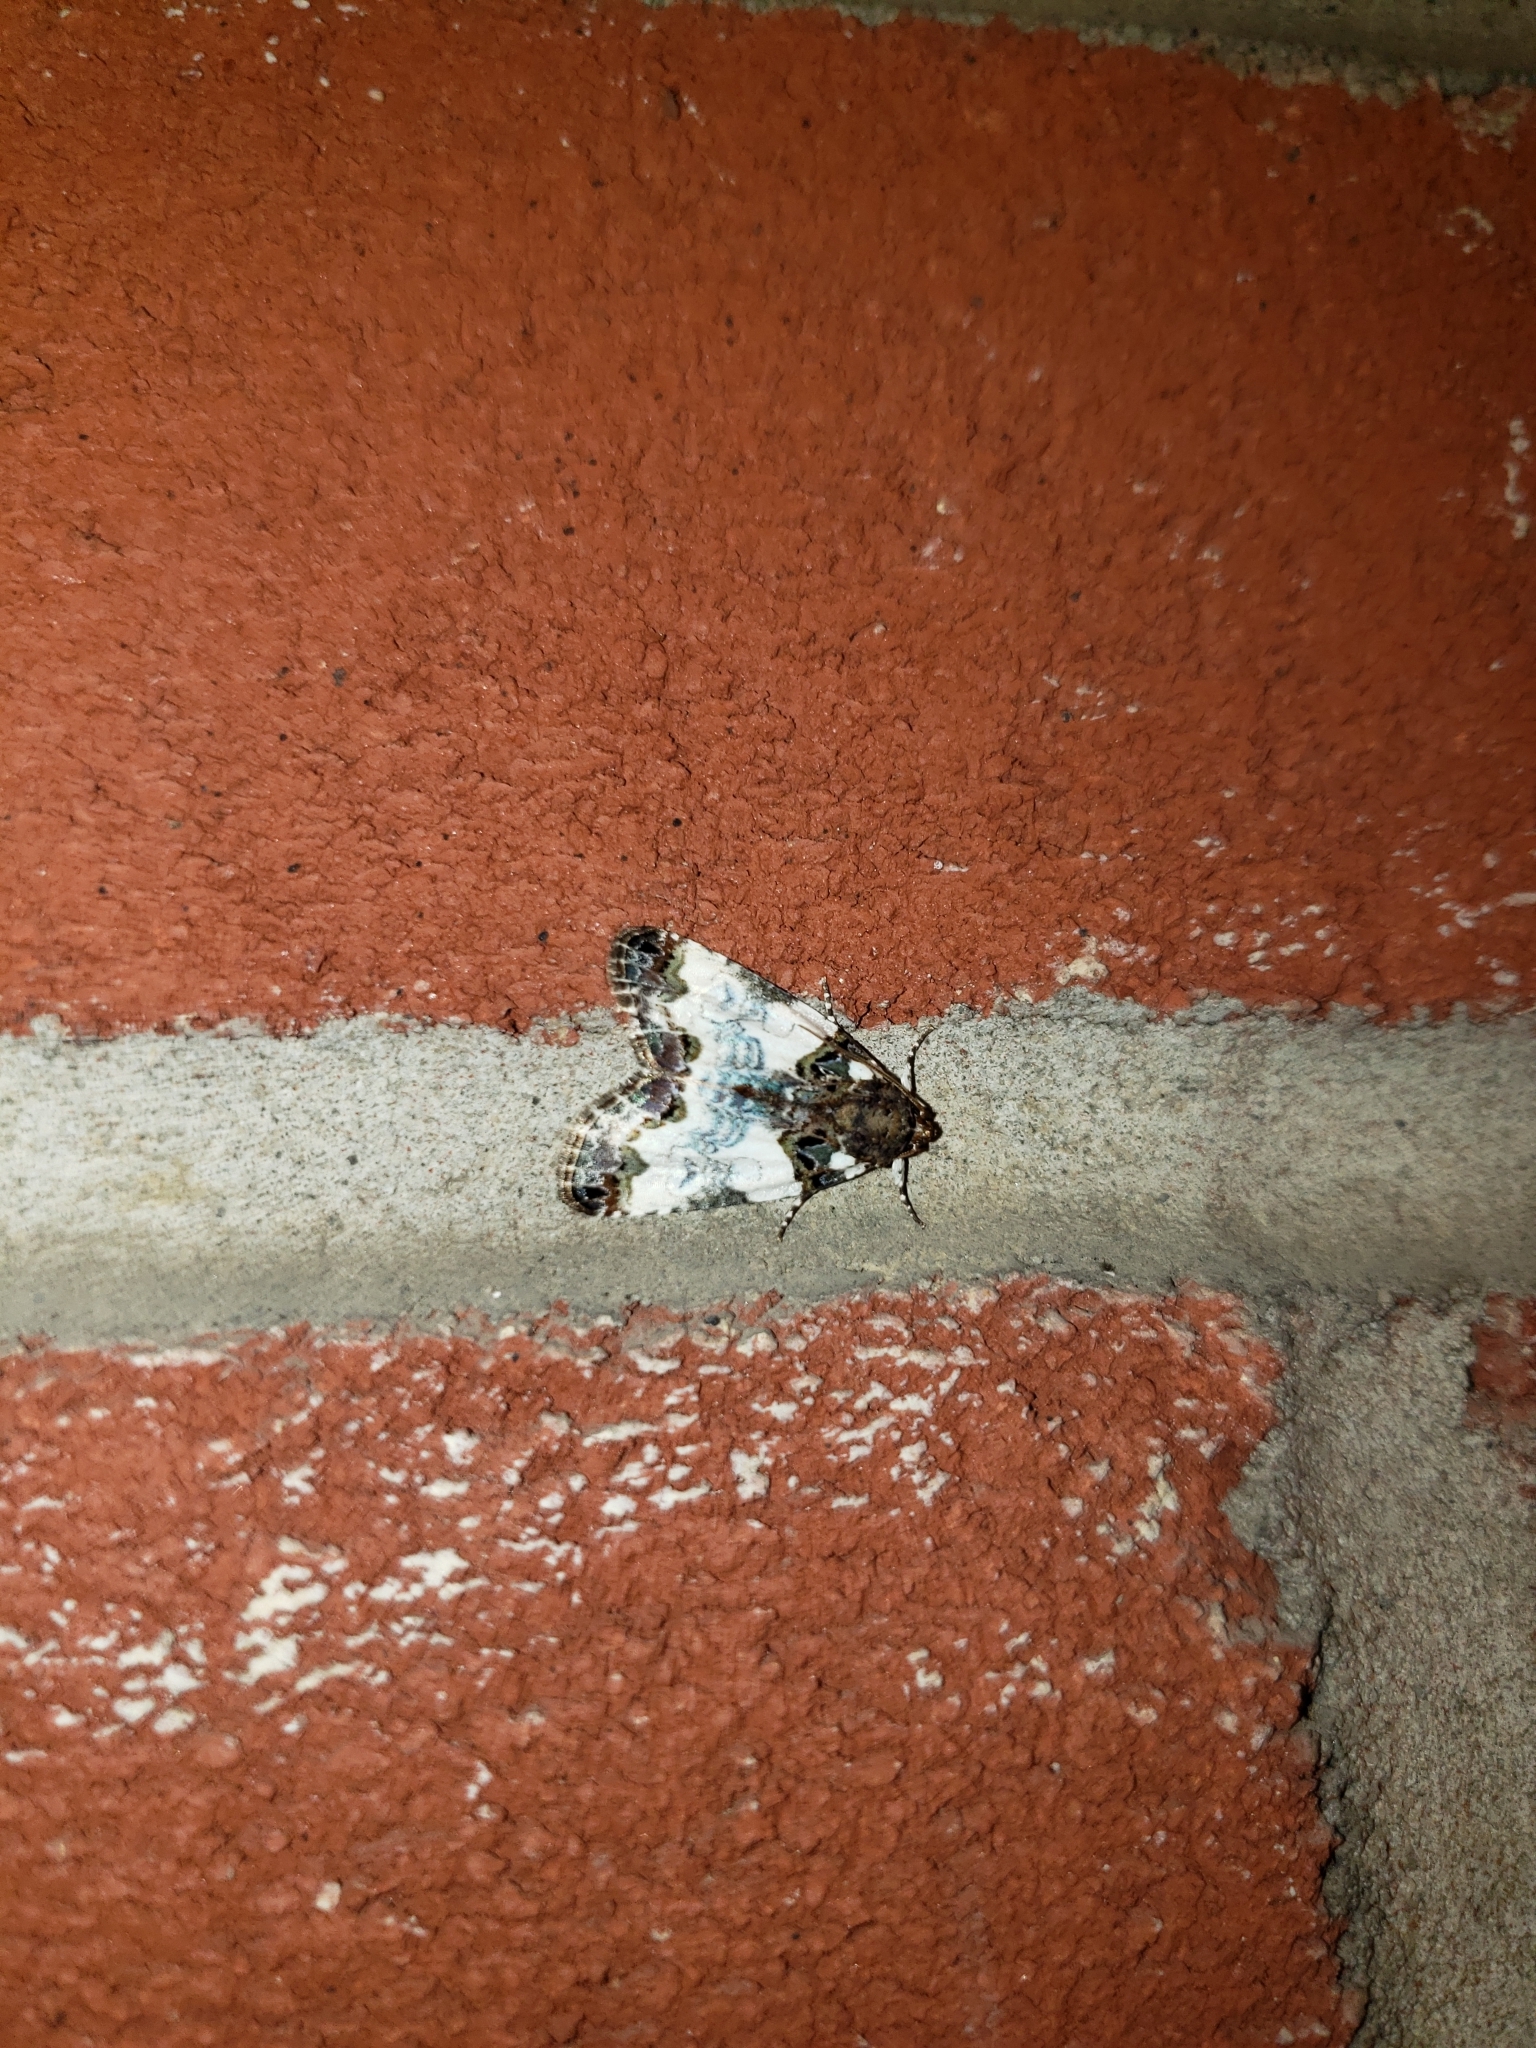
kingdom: Animalia
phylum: Arthropoda
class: Insecta
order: Lepidoptera
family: Noctuidae
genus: Cerma
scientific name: Cerma cerintha
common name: Tufted bird-dropping moth
